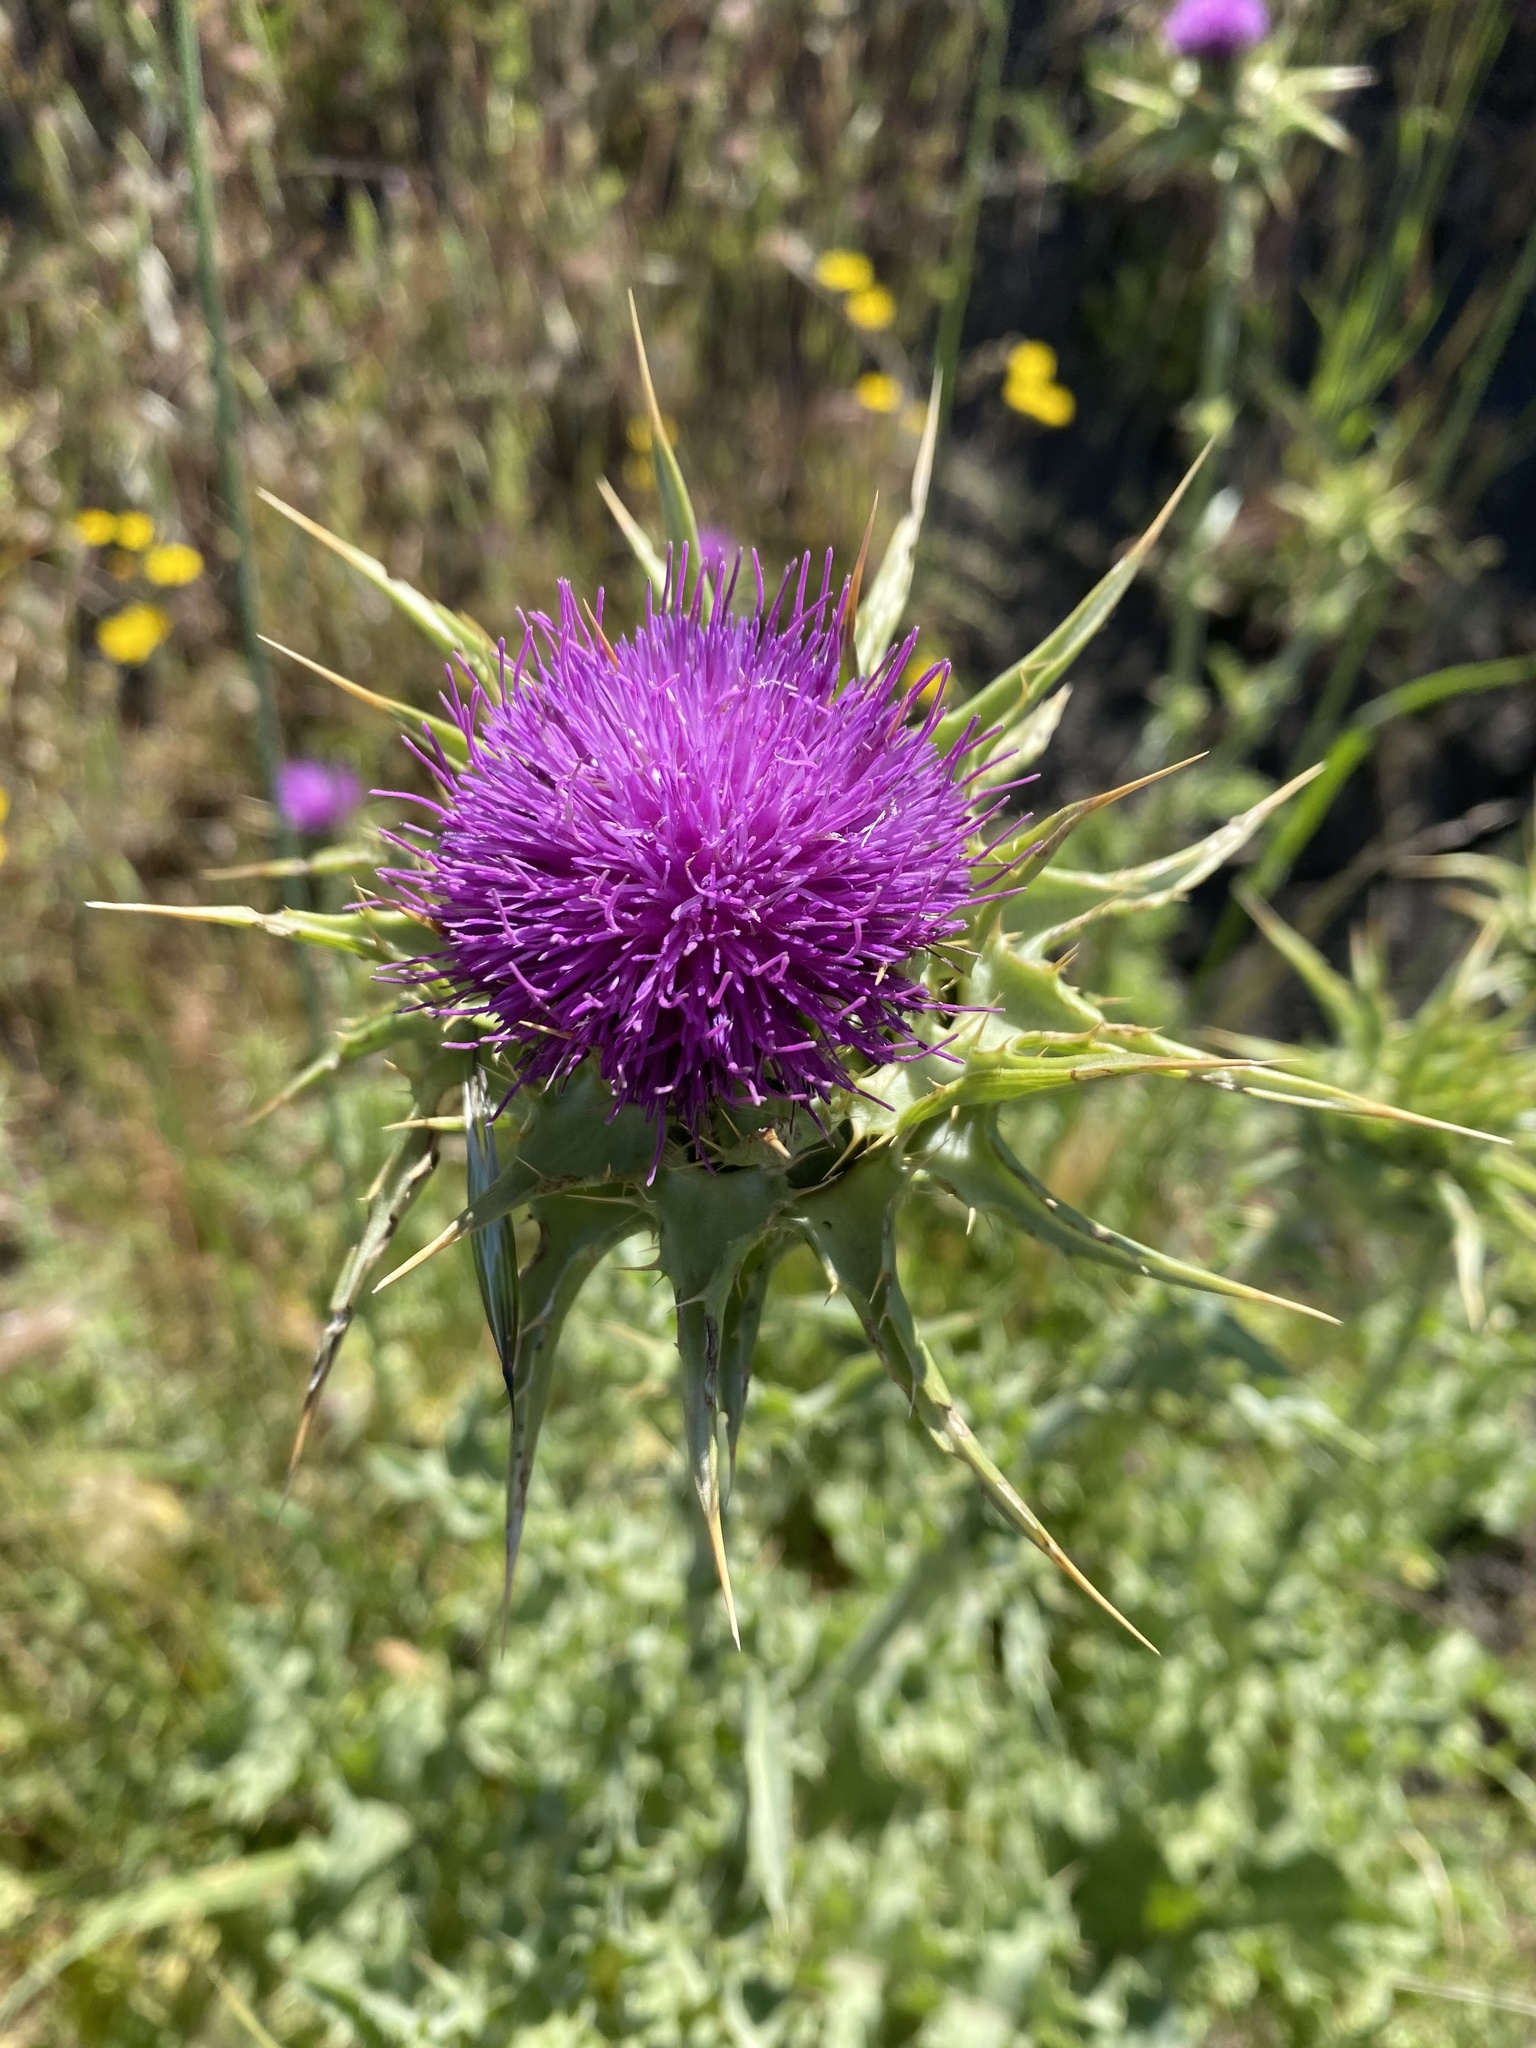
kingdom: Plantae
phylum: Tracheophyta
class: Magnoliopsida
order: Asterales
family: Asteraceae
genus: Silybum
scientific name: Silybum marianum
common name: Milk thistle
